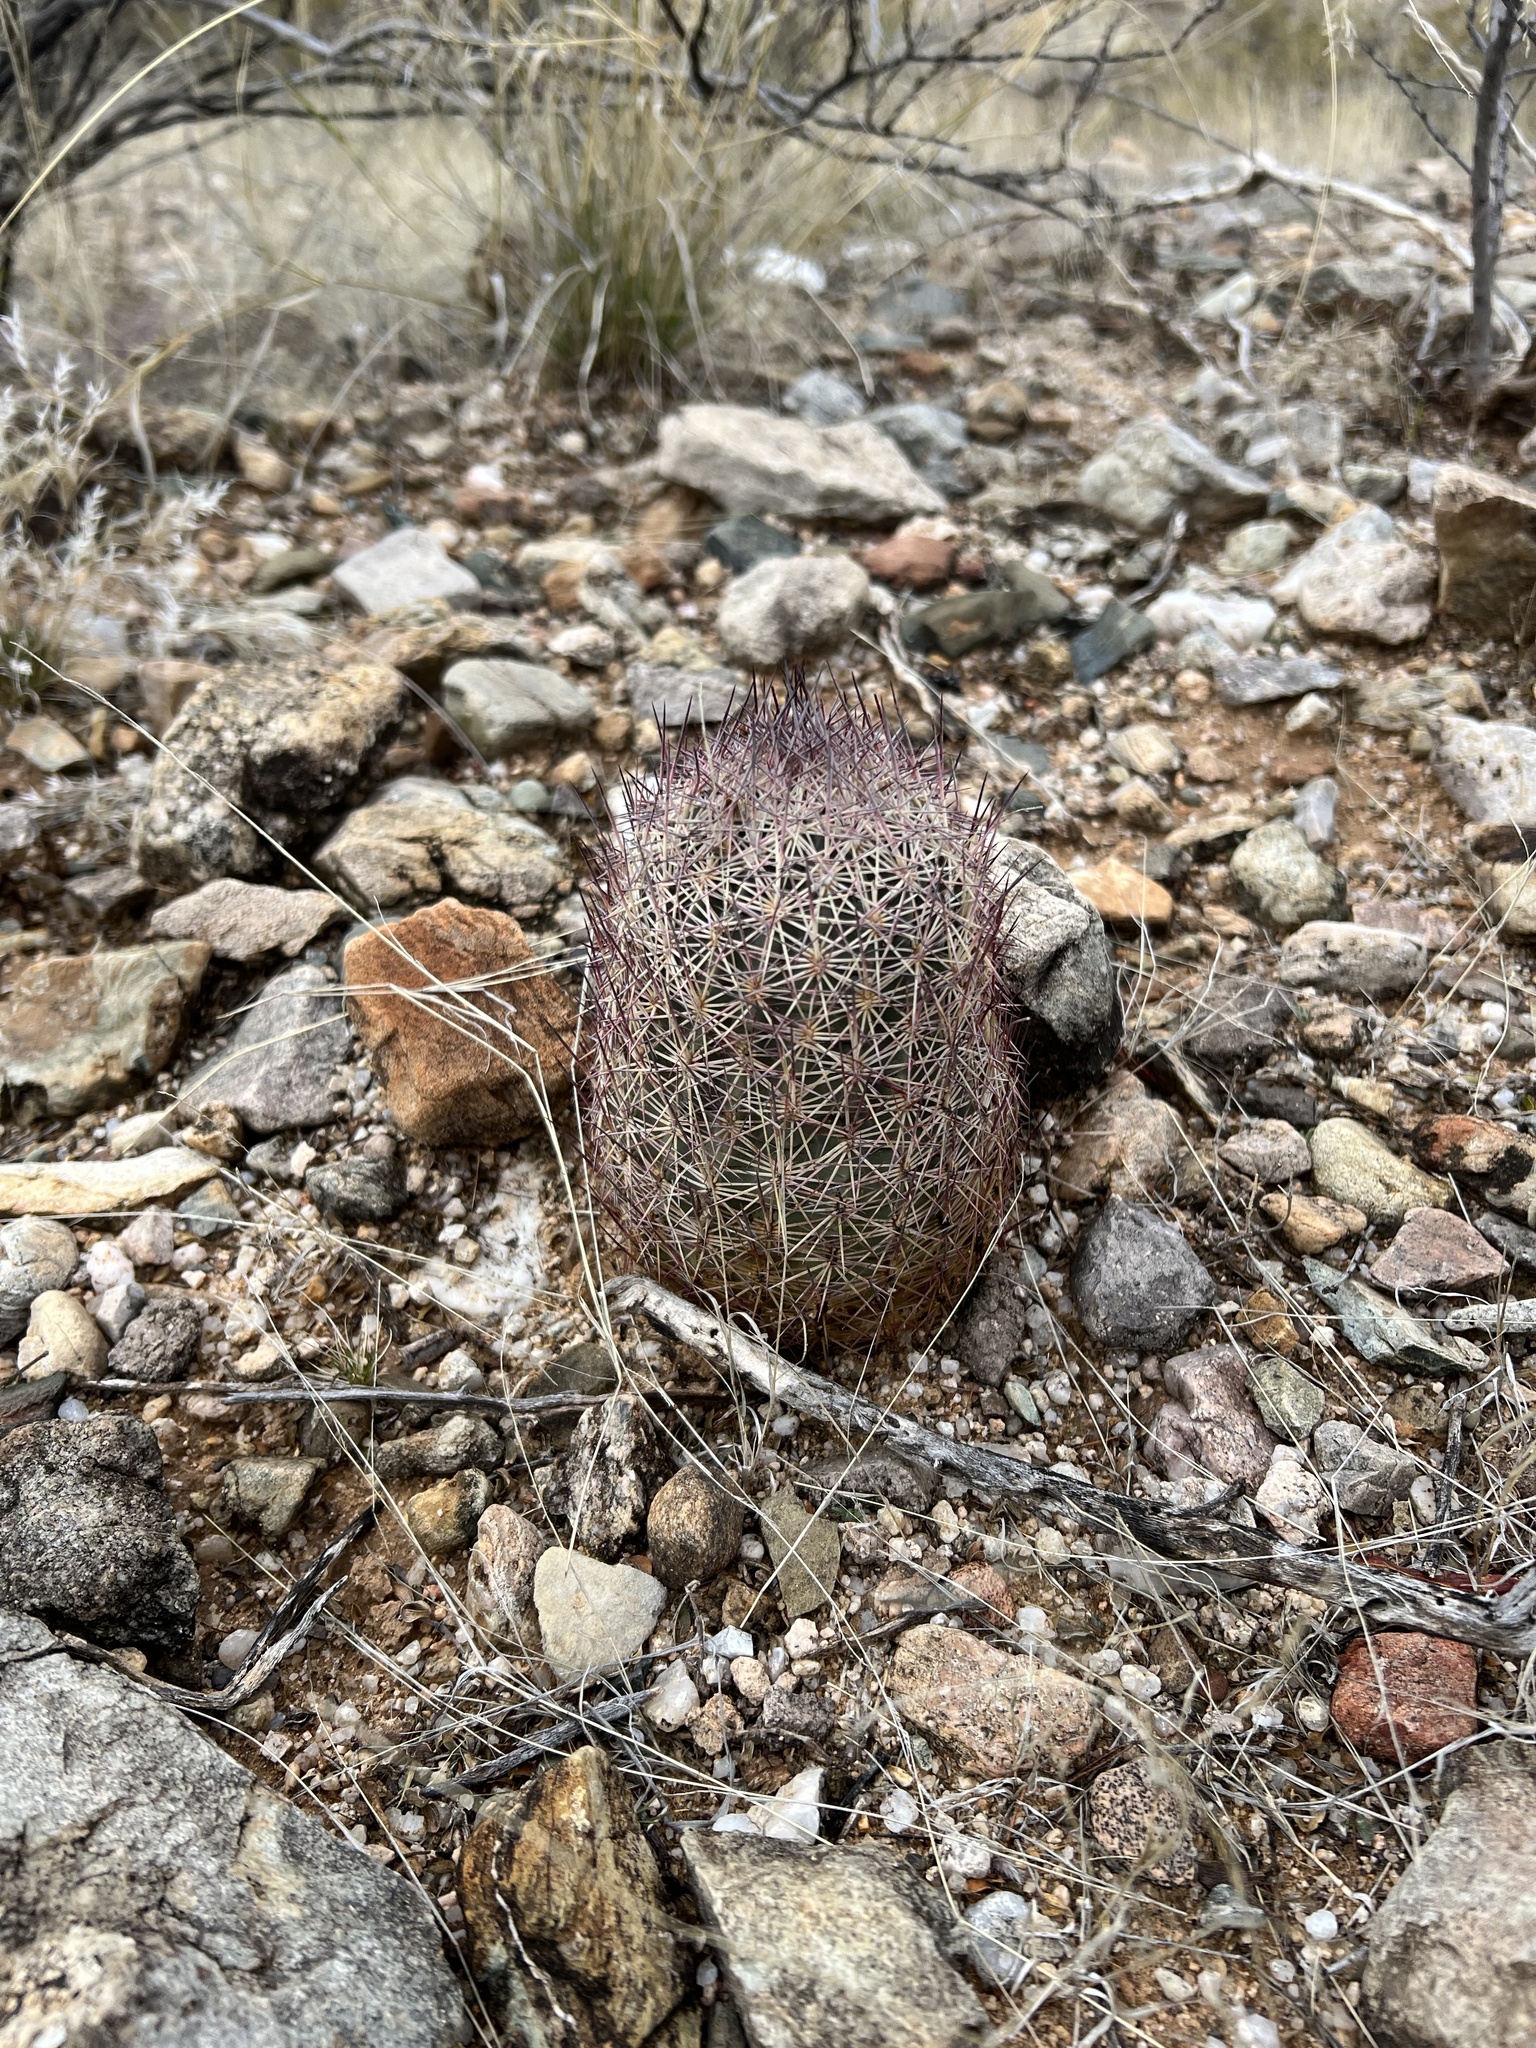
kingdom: Plantae
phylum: Tracheophyta
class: Magnoliopsida
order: Caryophyllales
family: Cactaceae
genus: Sclerocactus
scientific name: Sclerocactus johnsonii
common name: Eight-spine fishhook cactus
